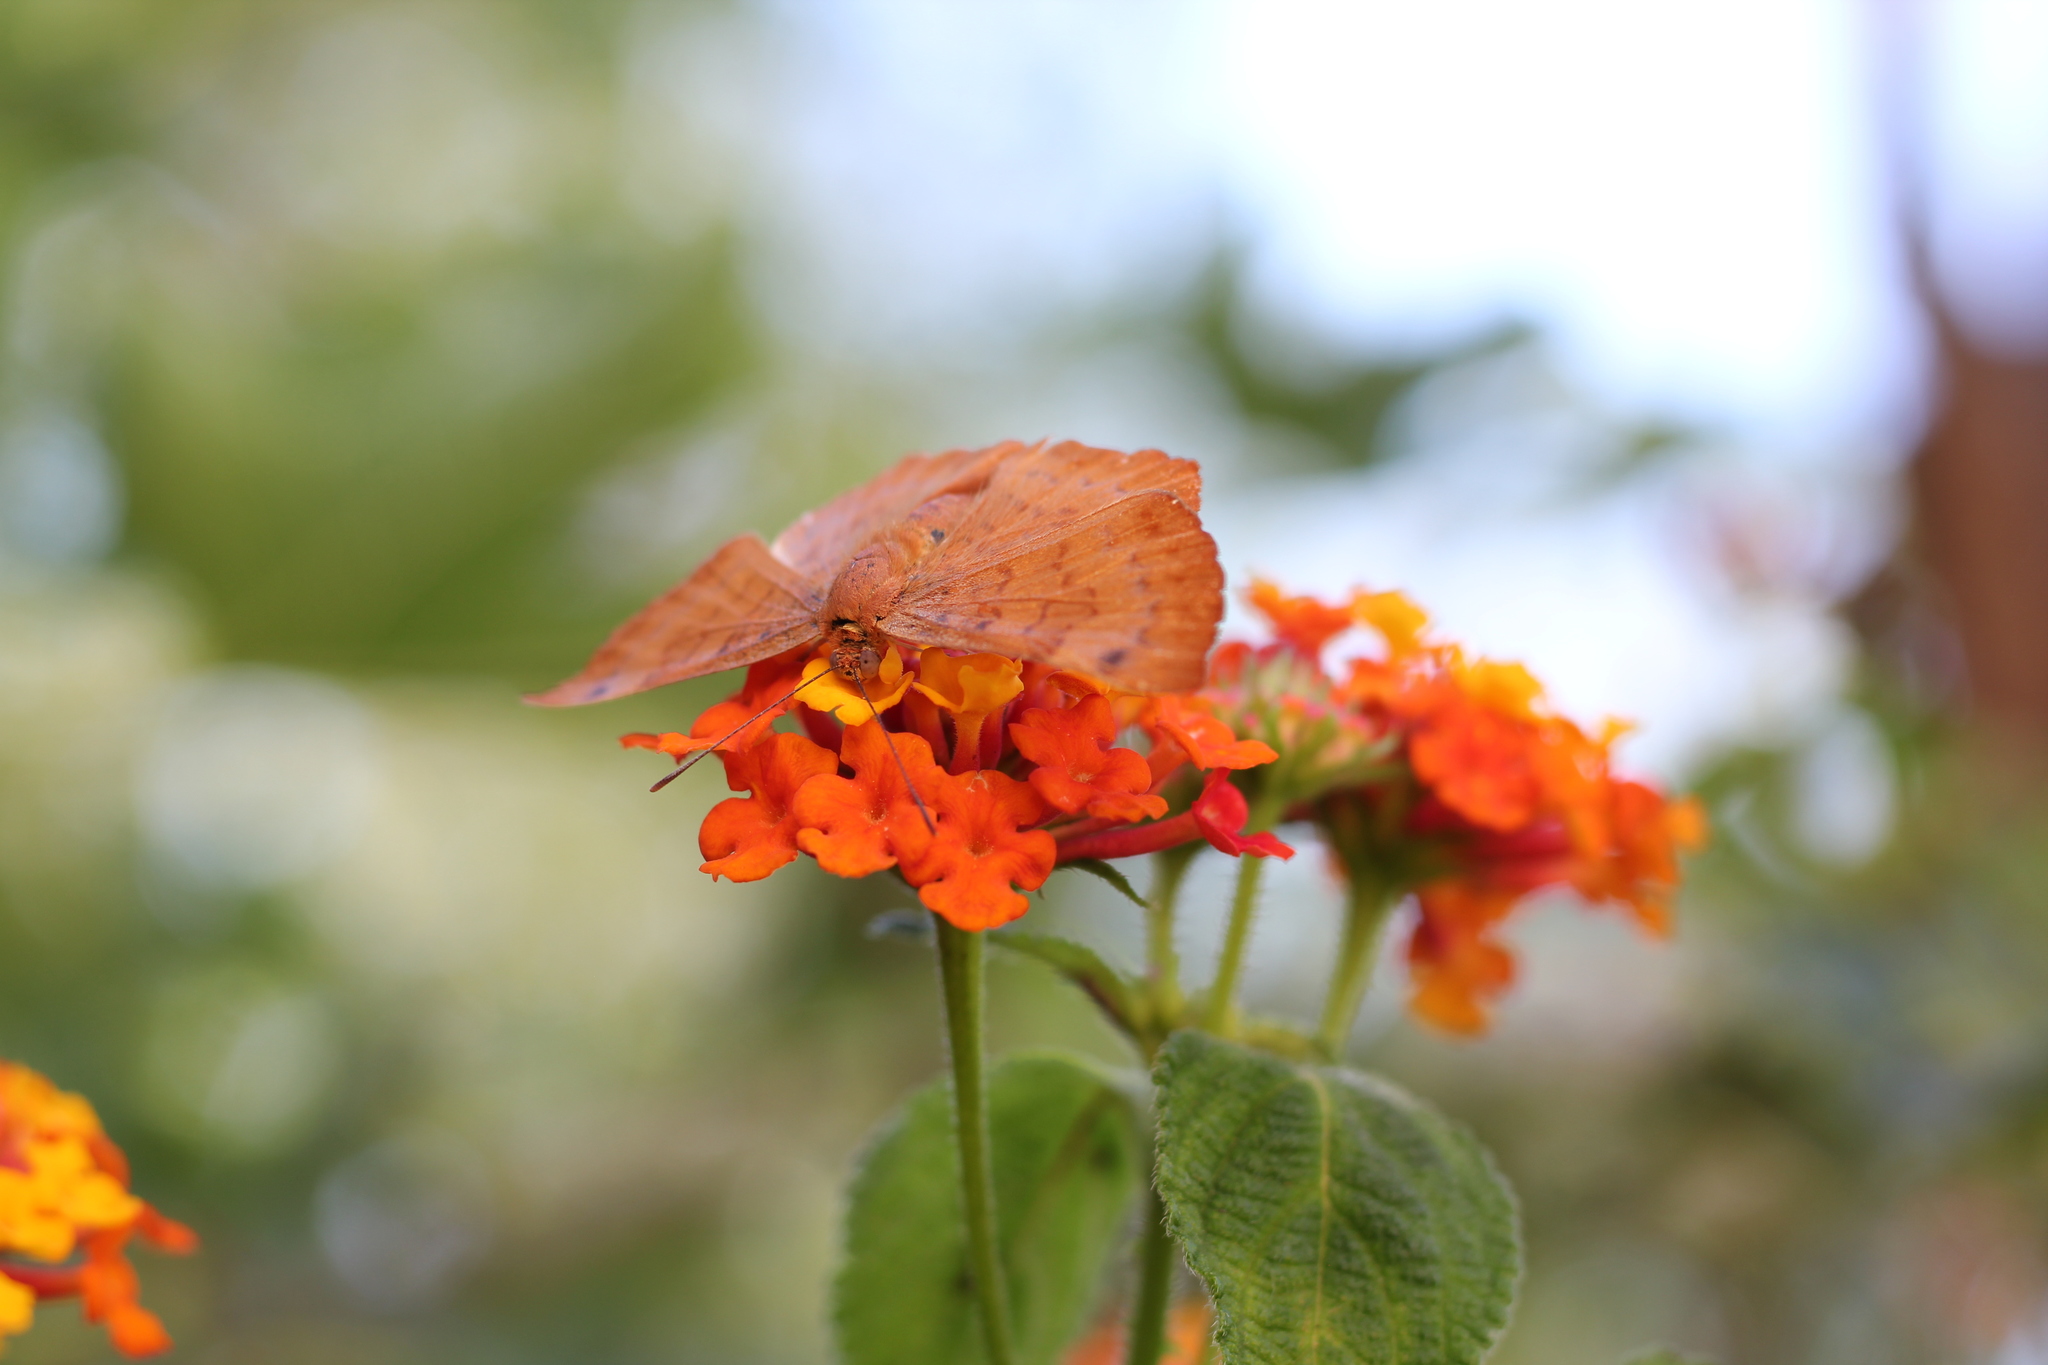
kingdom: Animalia
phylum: Arthropoda
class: Insecta
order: Lepidoptera
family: Lycaenidae
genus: Emesis
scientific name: Emesis russula
